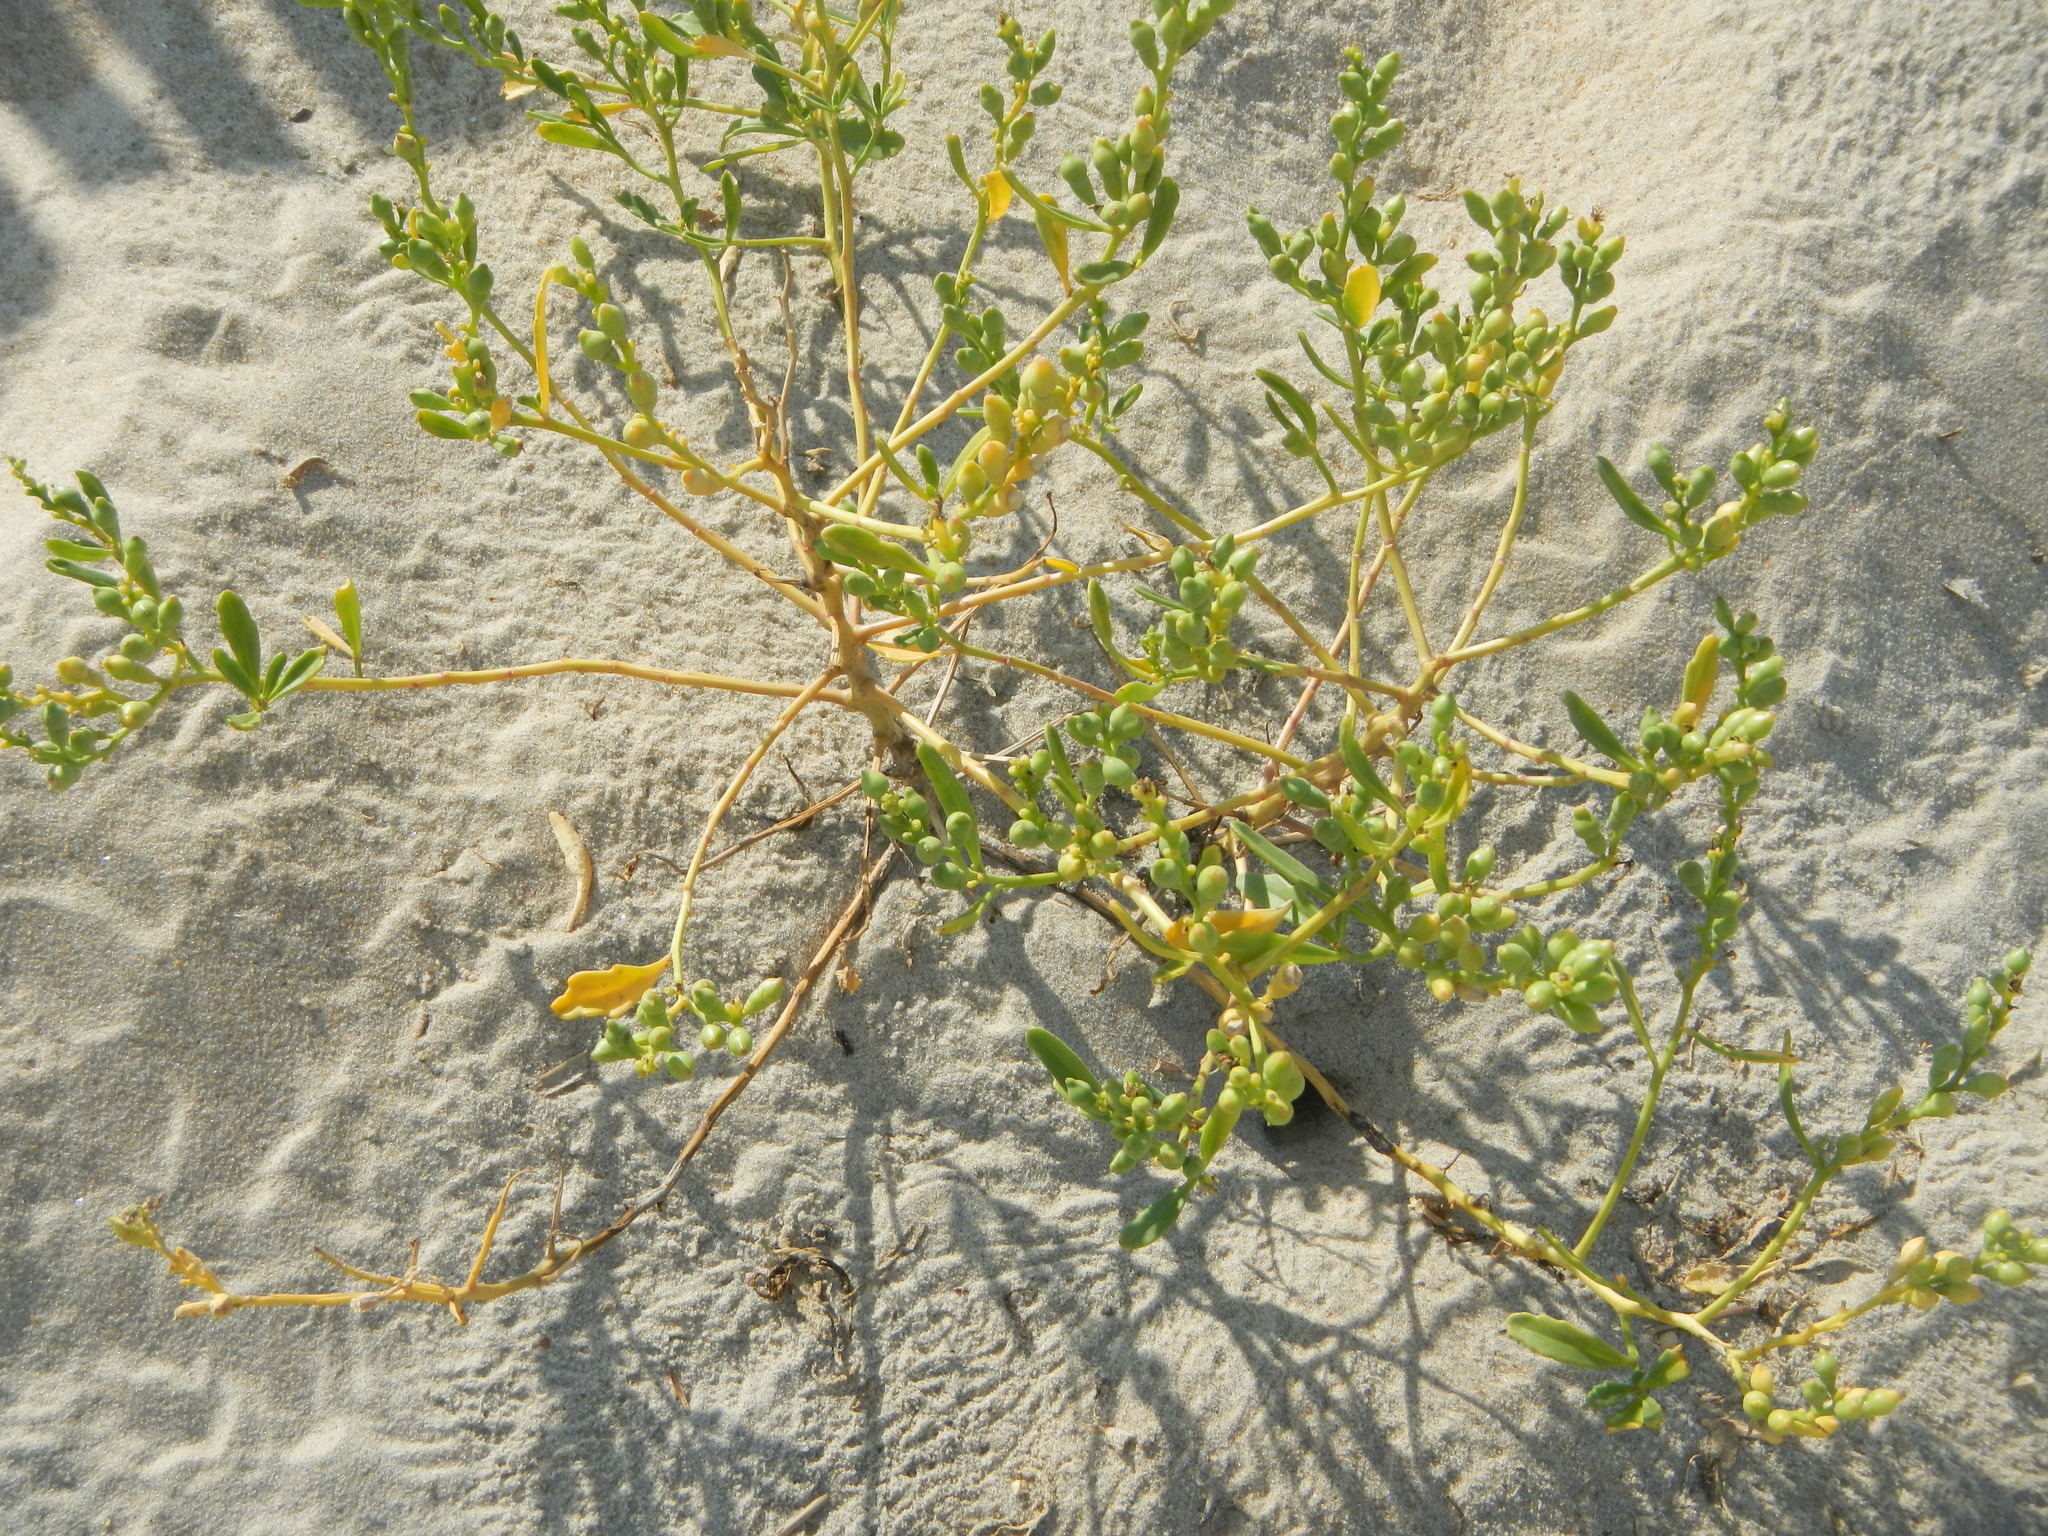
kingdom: Plantae
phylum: Tracheophyta
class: Magnoliopsida
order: Brassicales
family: Brassicaceae
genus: Cakile
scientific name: Cakile edentula
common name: American sea rocket
